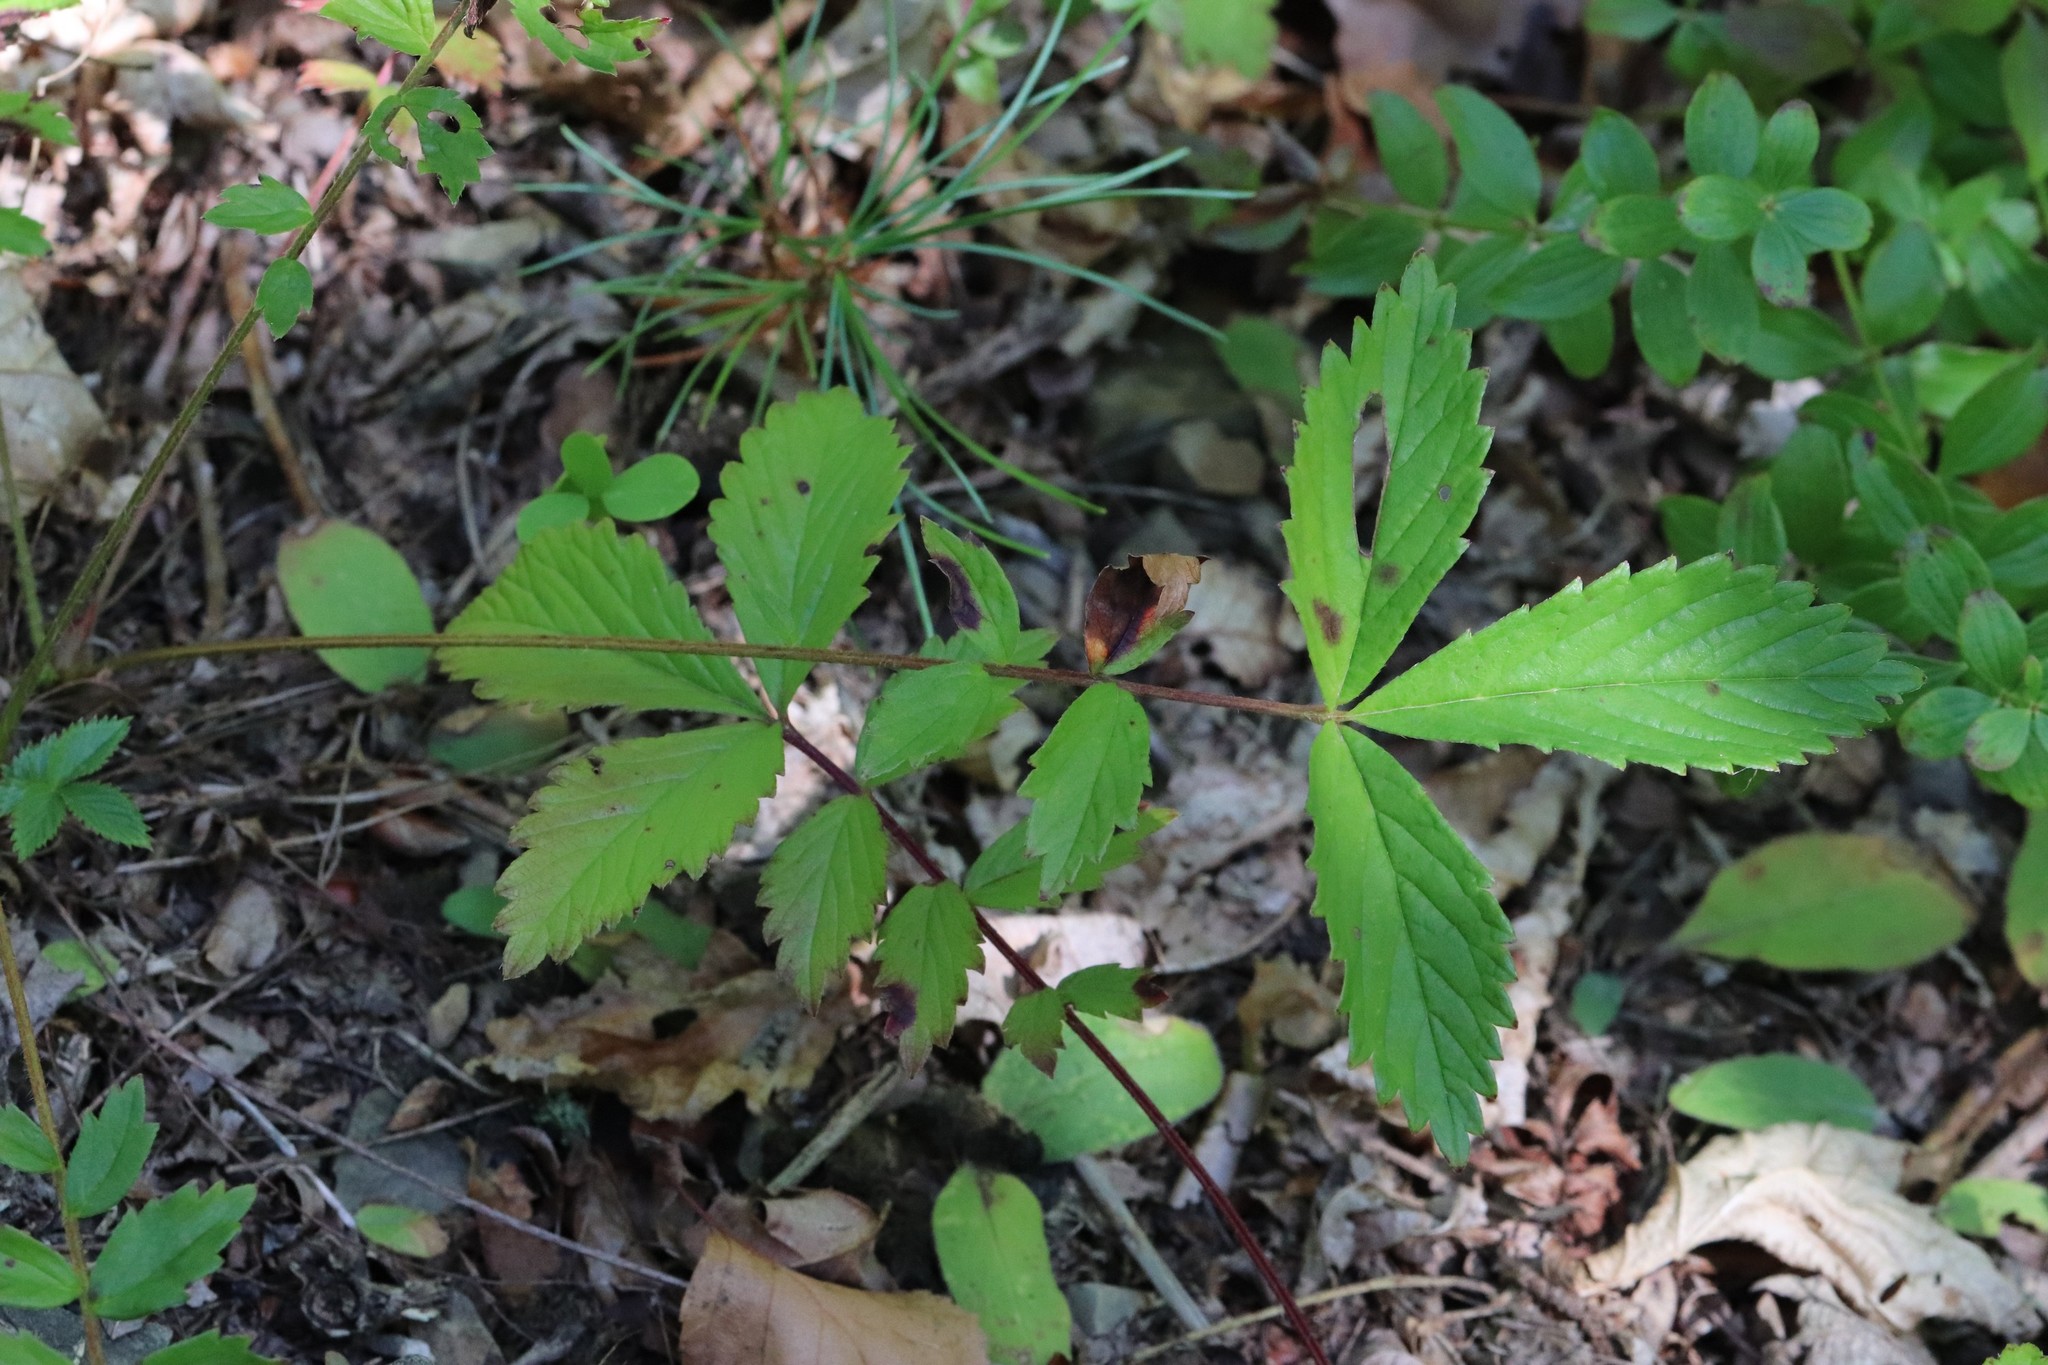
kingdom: Plantae
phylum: Tracheophyta
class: Magnoliopsida
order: Rosales
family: Rosaceae
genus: Potentilla
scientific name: Potentilla fragarioides
